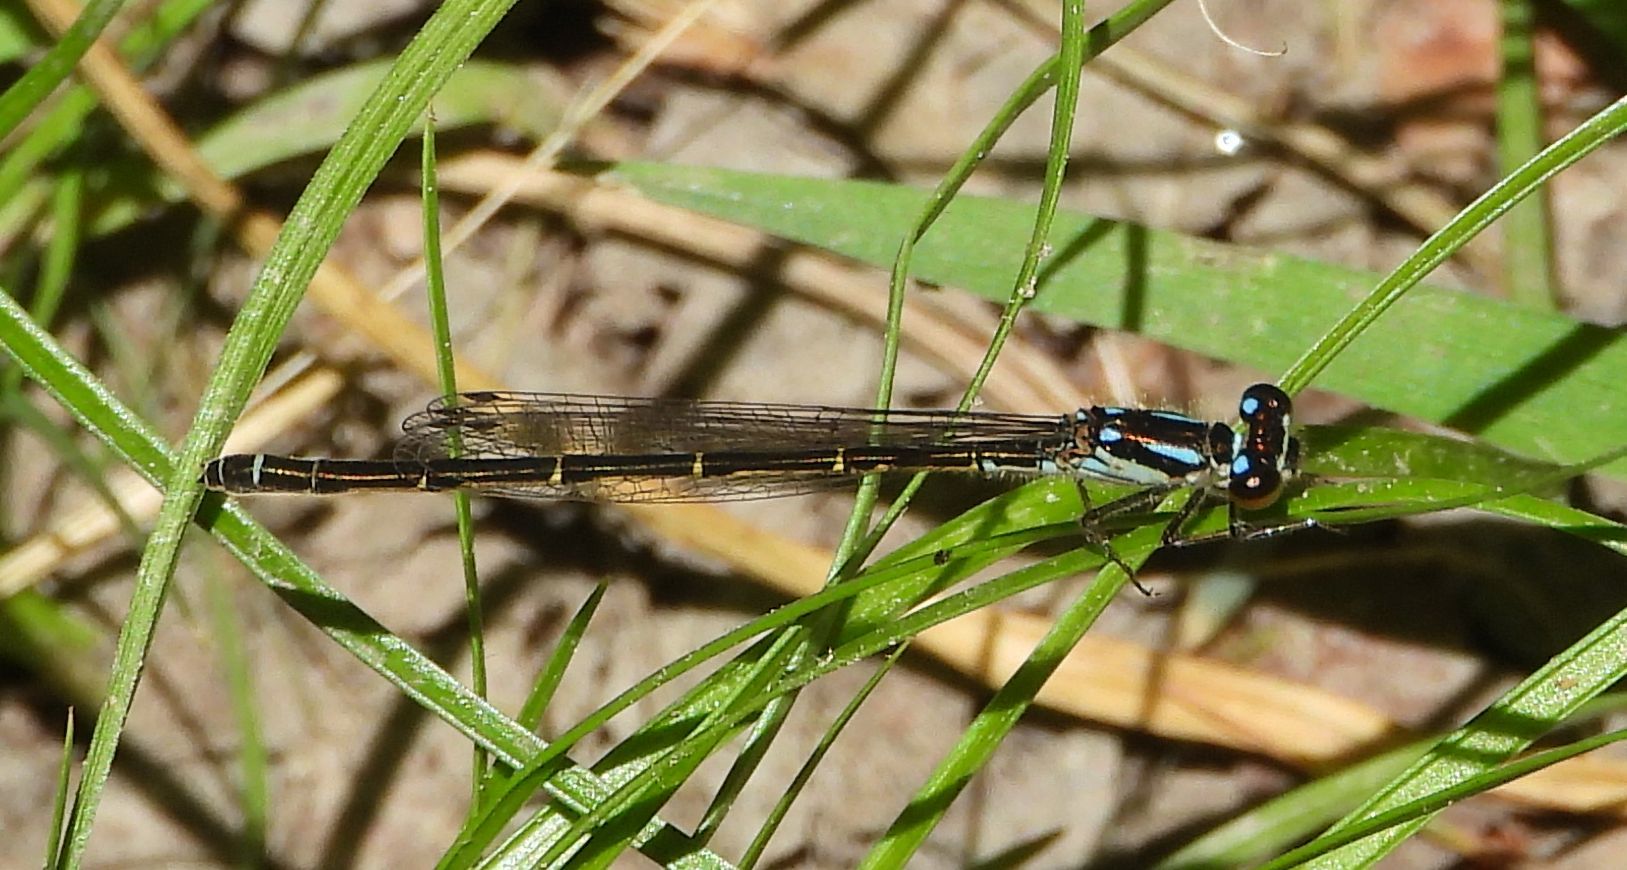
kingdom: Animalia
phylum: Arthropoda
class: Insecta
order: Odonata
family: Coenagrionidae
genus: Ischnura
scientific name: Ischnura posita
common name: Fragile forktail
